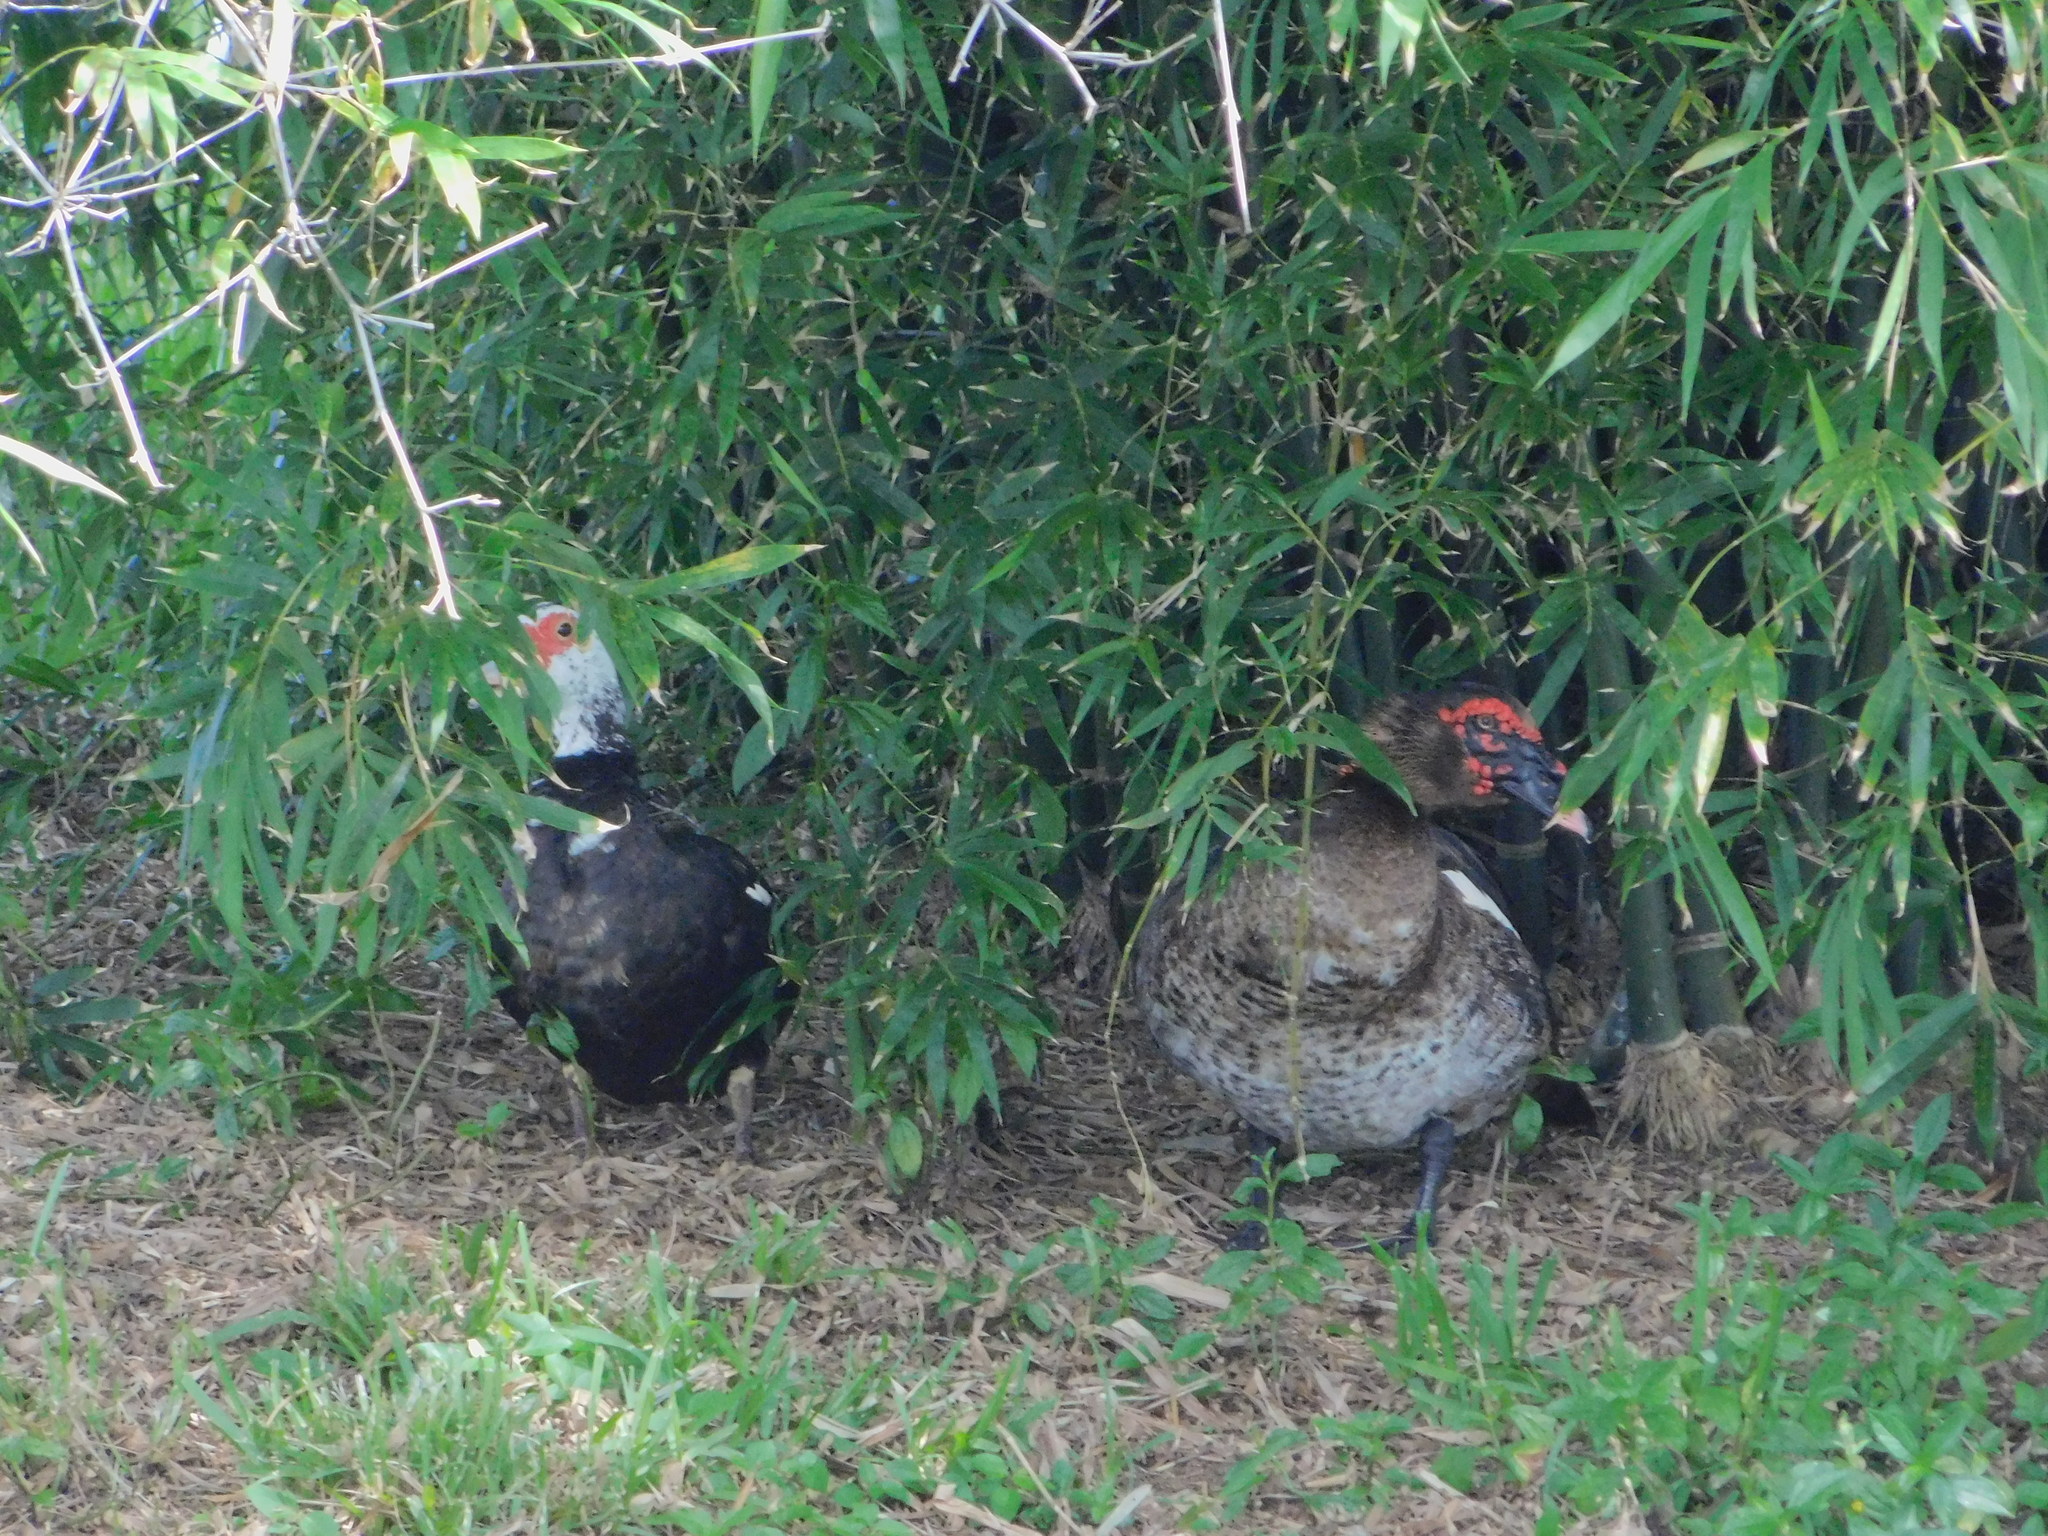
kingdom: Animalia
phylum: Chordata
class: Aves
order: Anseriformes
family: Anatidae
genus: Cairina
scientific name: Cairina moschata
